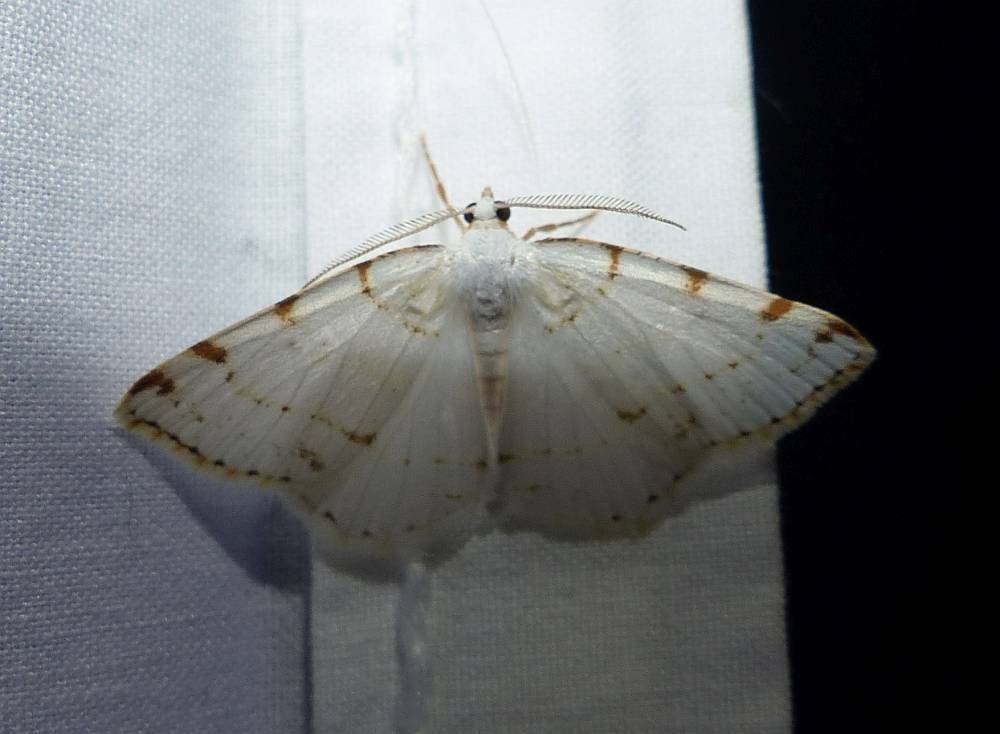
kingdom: Animalia
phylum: Arthropoda
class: Insecta
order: Lepidoptera
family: Geometridae
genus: Macaria
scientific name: Macaria pustularia
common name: Lesser maple spanworm moth
